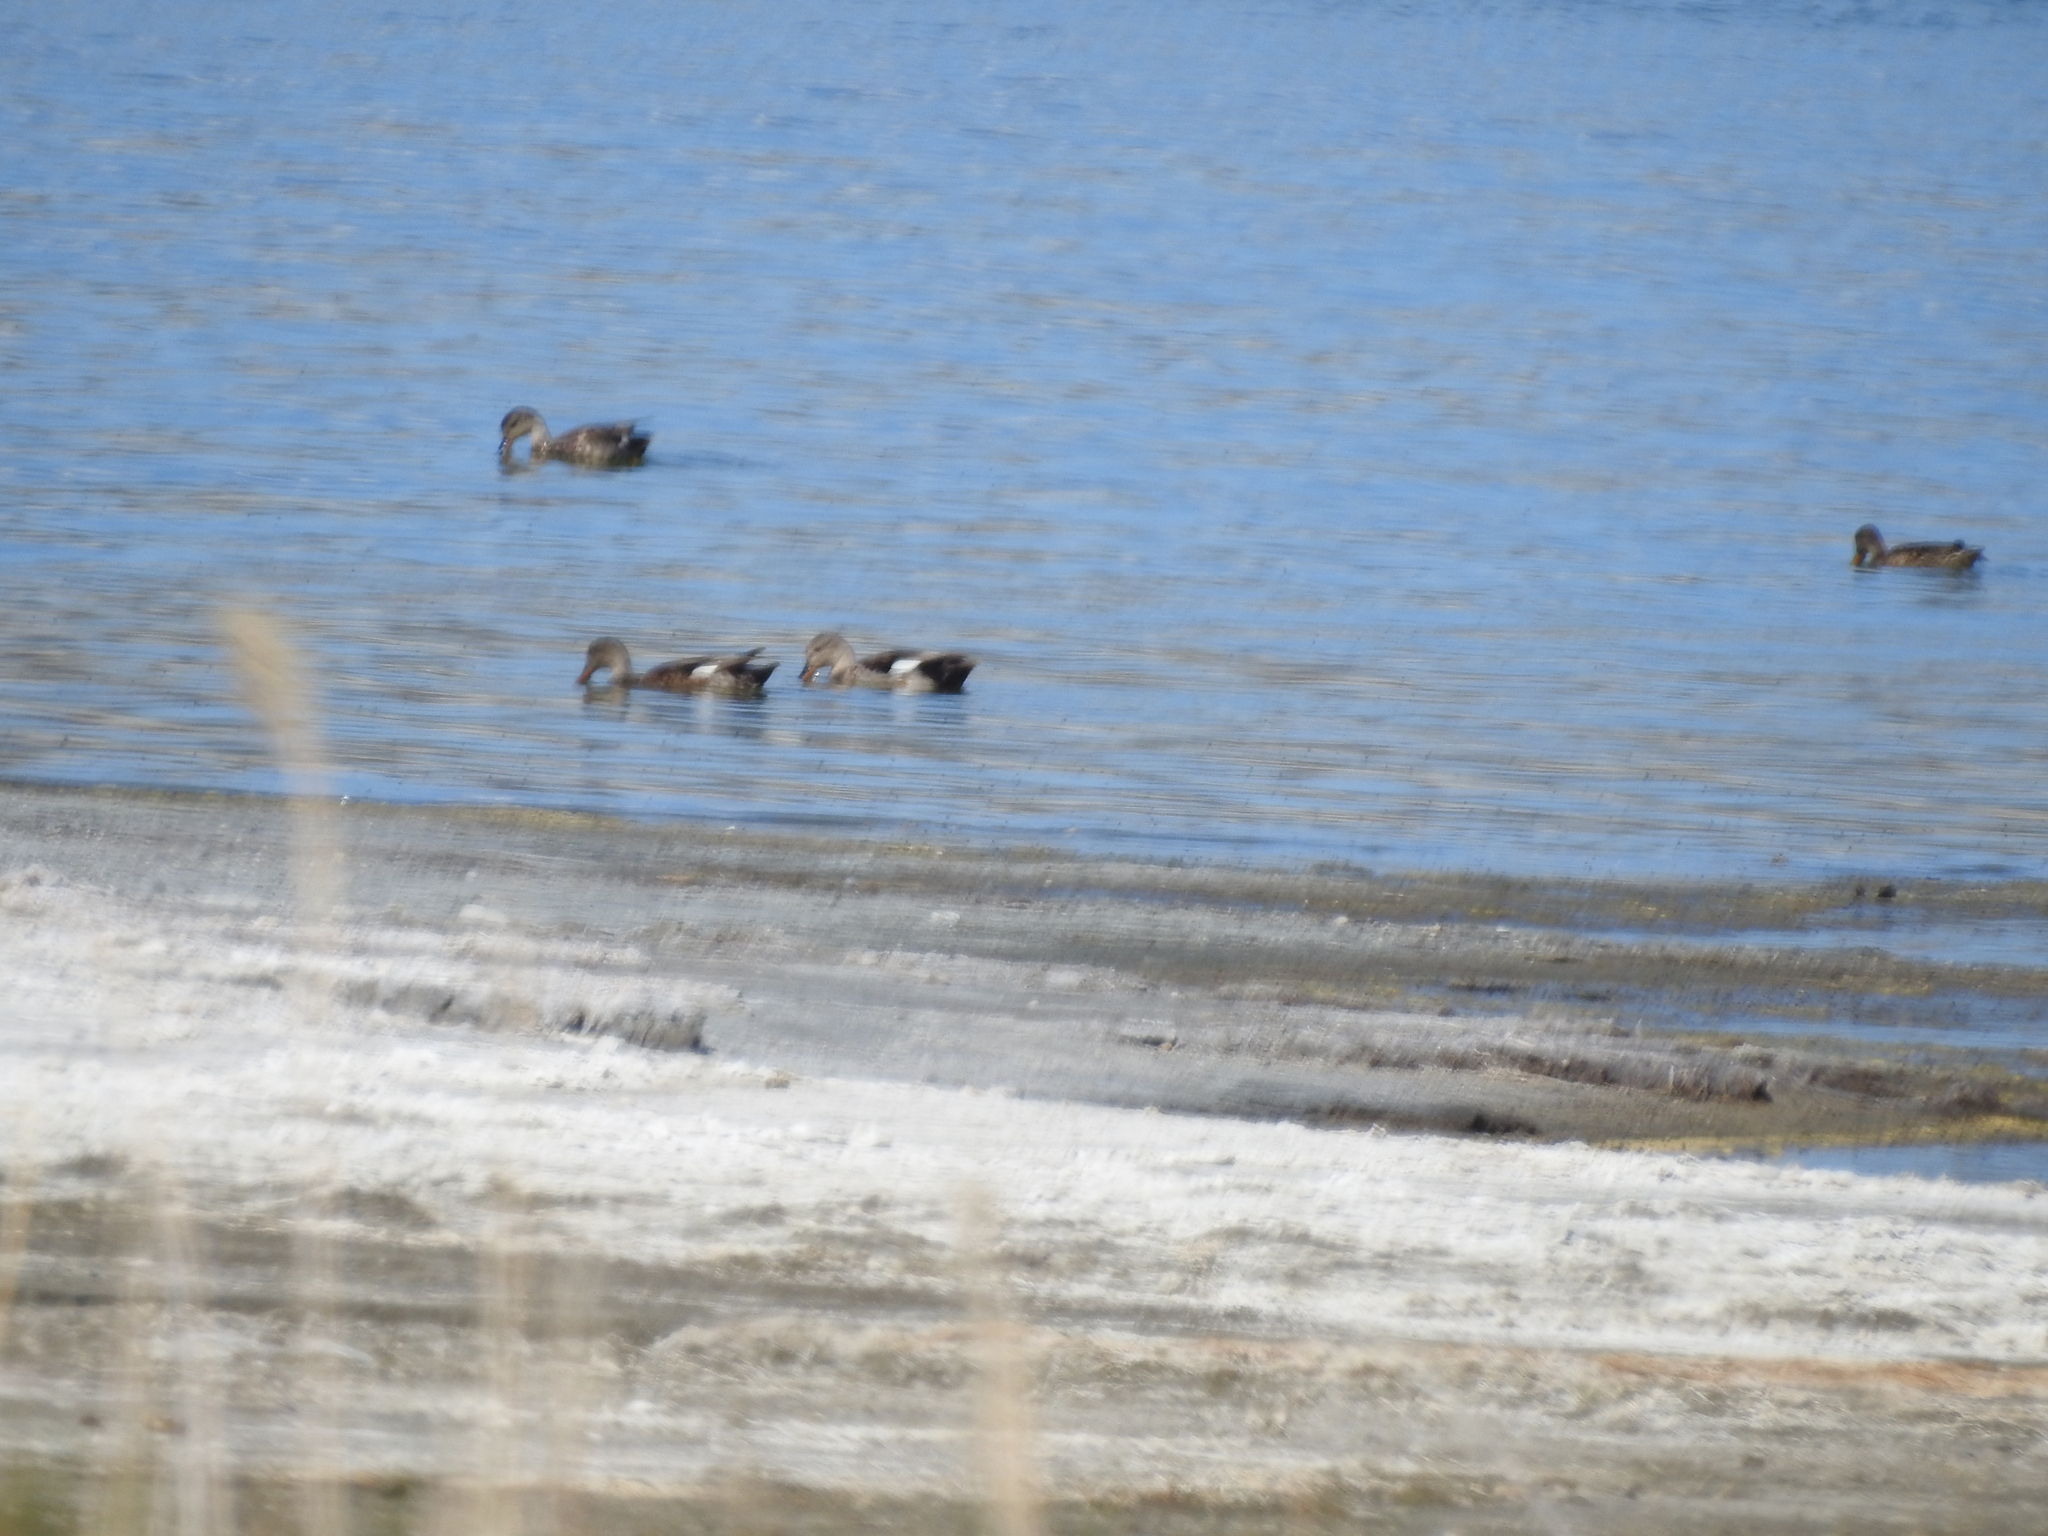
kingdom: Animalia
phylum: Chordata
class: Aves
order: Anseriformes
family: Anatidae
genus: Mareca
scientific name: Mareca strepera
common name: Gadwall
